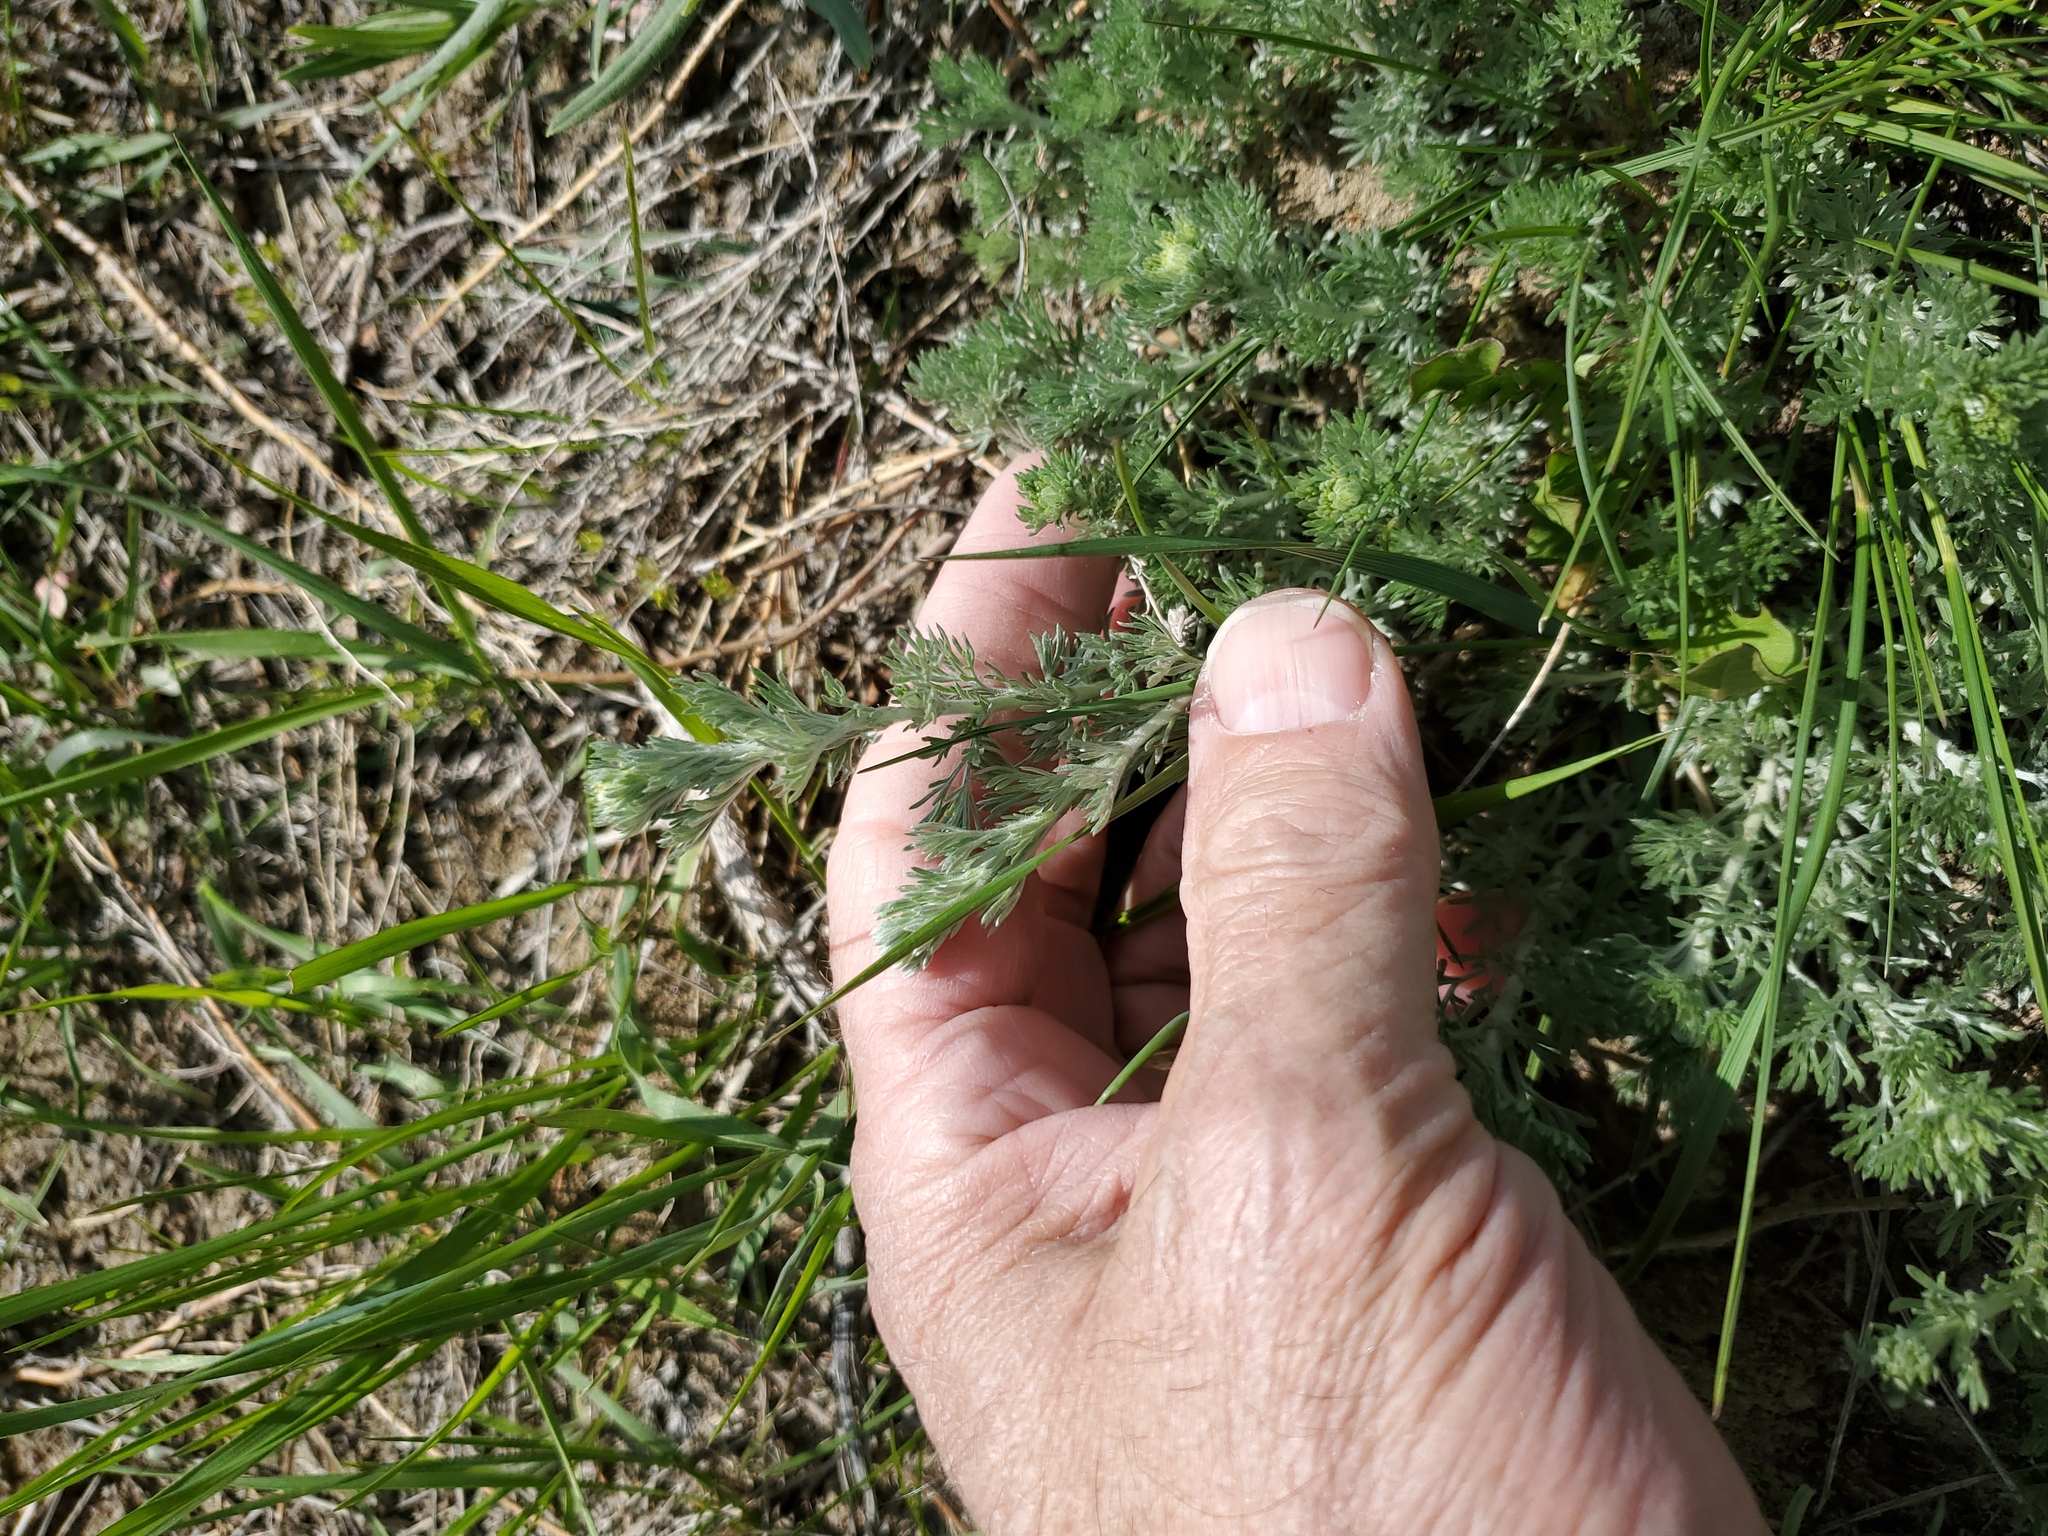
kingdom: Plantae
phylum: Tracheophyta
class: Magnoliopsida
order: Asterales
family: Asteraceae
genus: Artemisia
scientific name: Artemisia frigida
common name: Prairie sagewort
